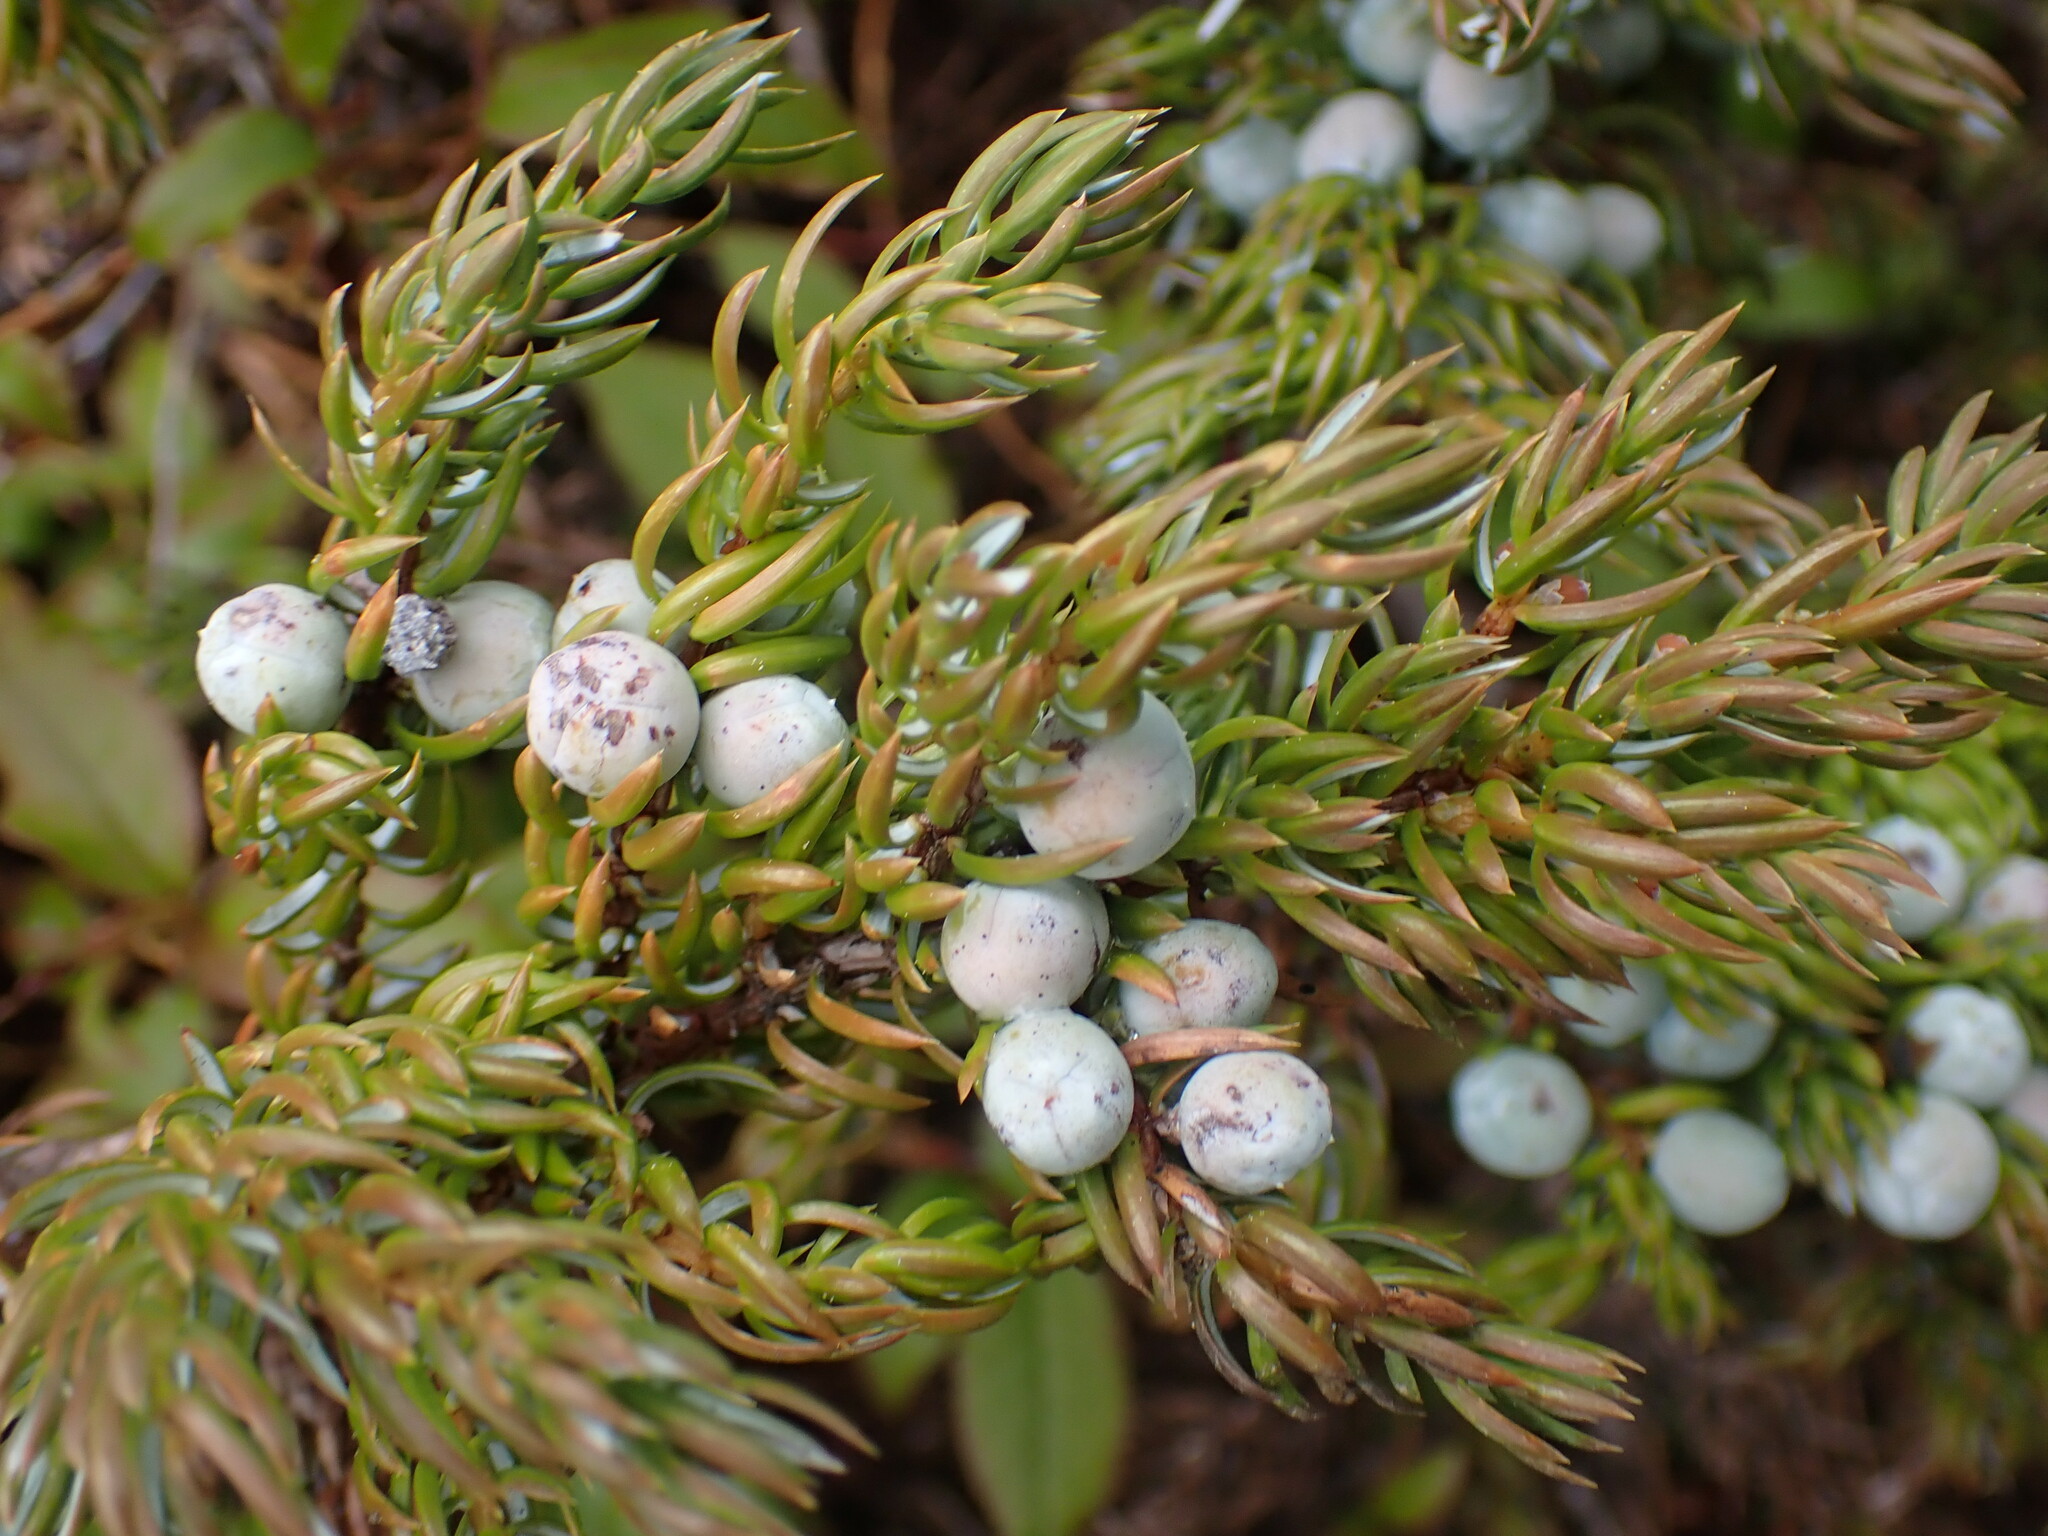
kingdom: Plantae
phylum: Tracheophyta
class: Pinopsida
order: Pinales
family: Cupressaceae
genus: Juniperus
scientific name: Juniperus communis
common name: Common juniper
